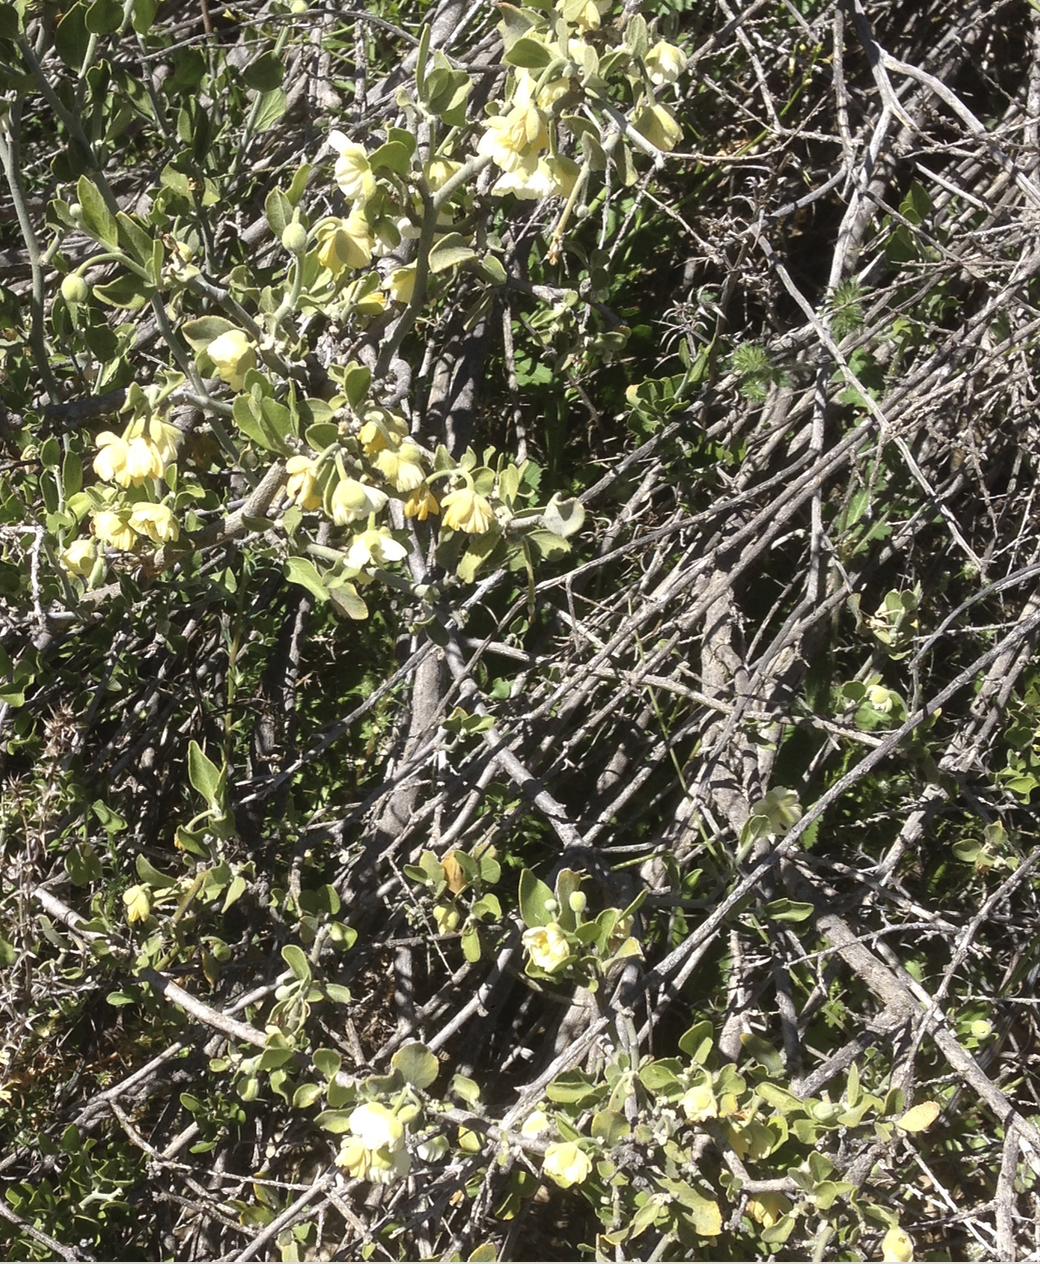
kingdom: Plantae
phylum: Tracheophyta
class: Magnoliopsida
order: Zygophyllales
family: Zygophyllaceae
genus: Viscainoa
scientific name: Viscainoa geniculata
